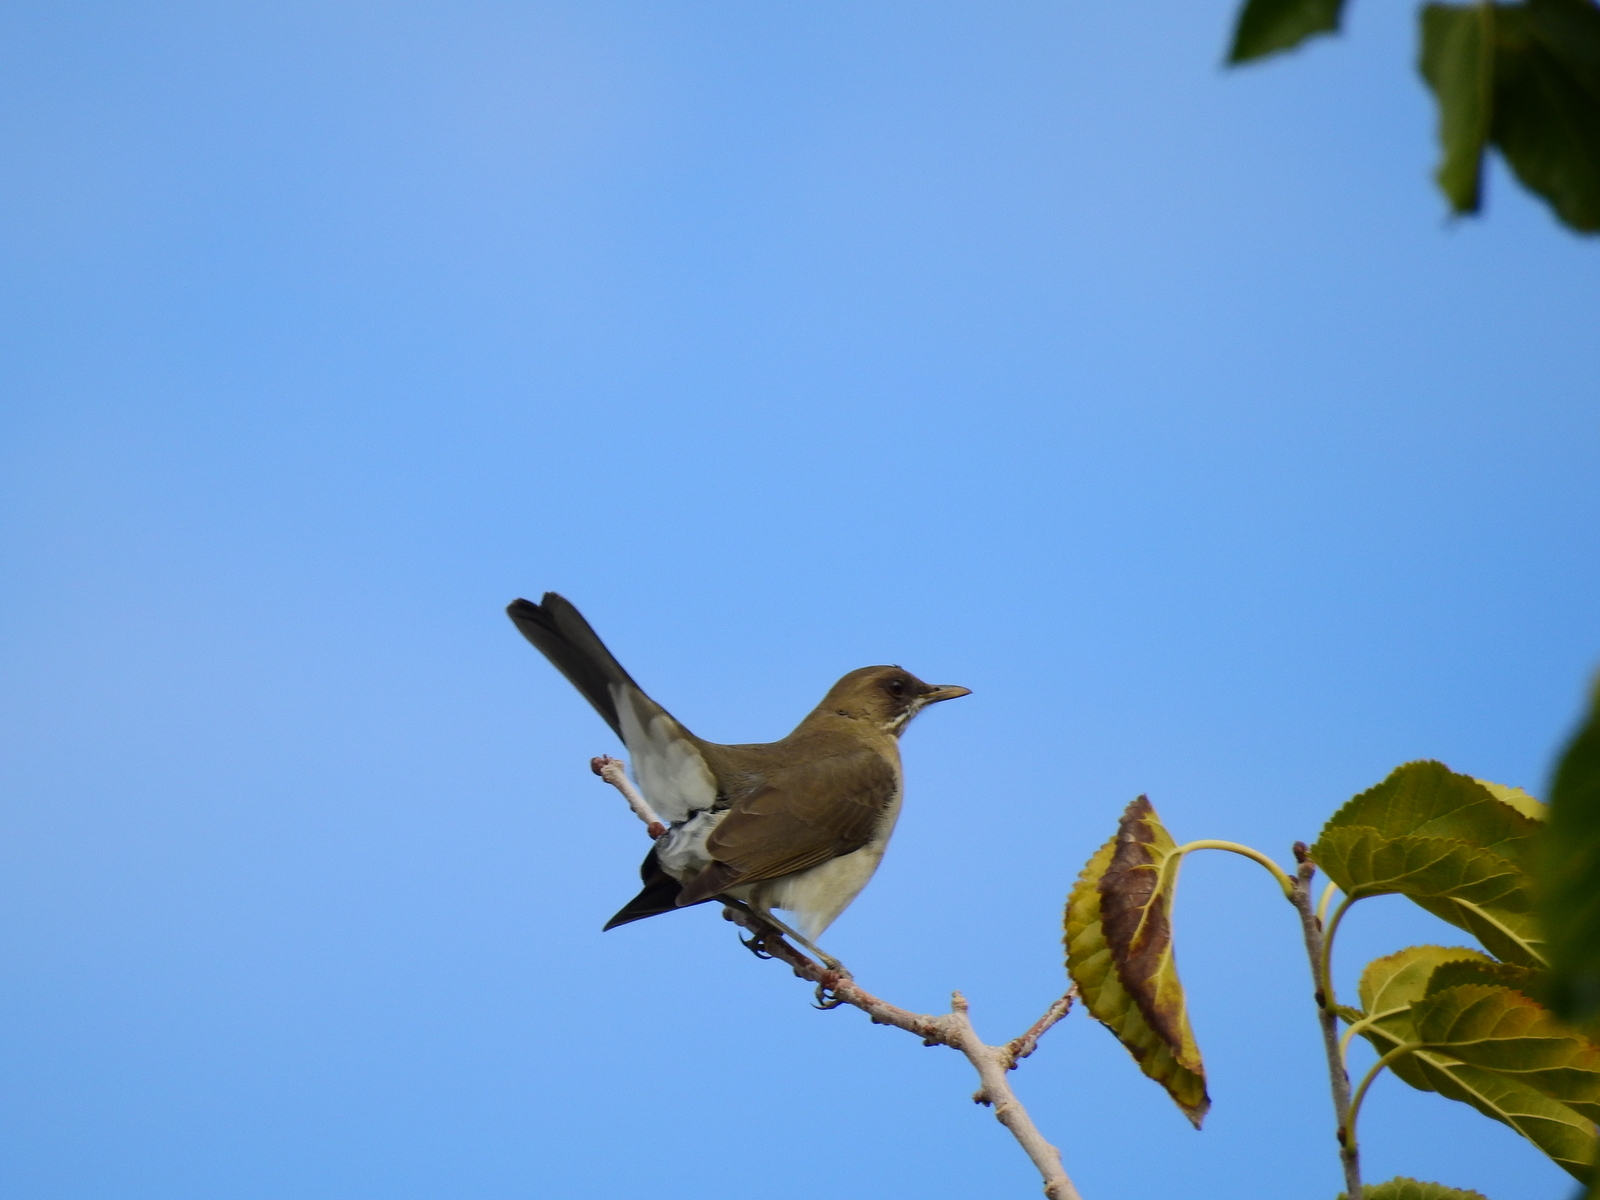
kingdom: Animalia
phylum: Chordata
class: Aves
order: Passeriformes
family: Turdidae
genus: Turdus
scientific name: Turdus amaurochalinus
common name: Creamy-bellied thrush
